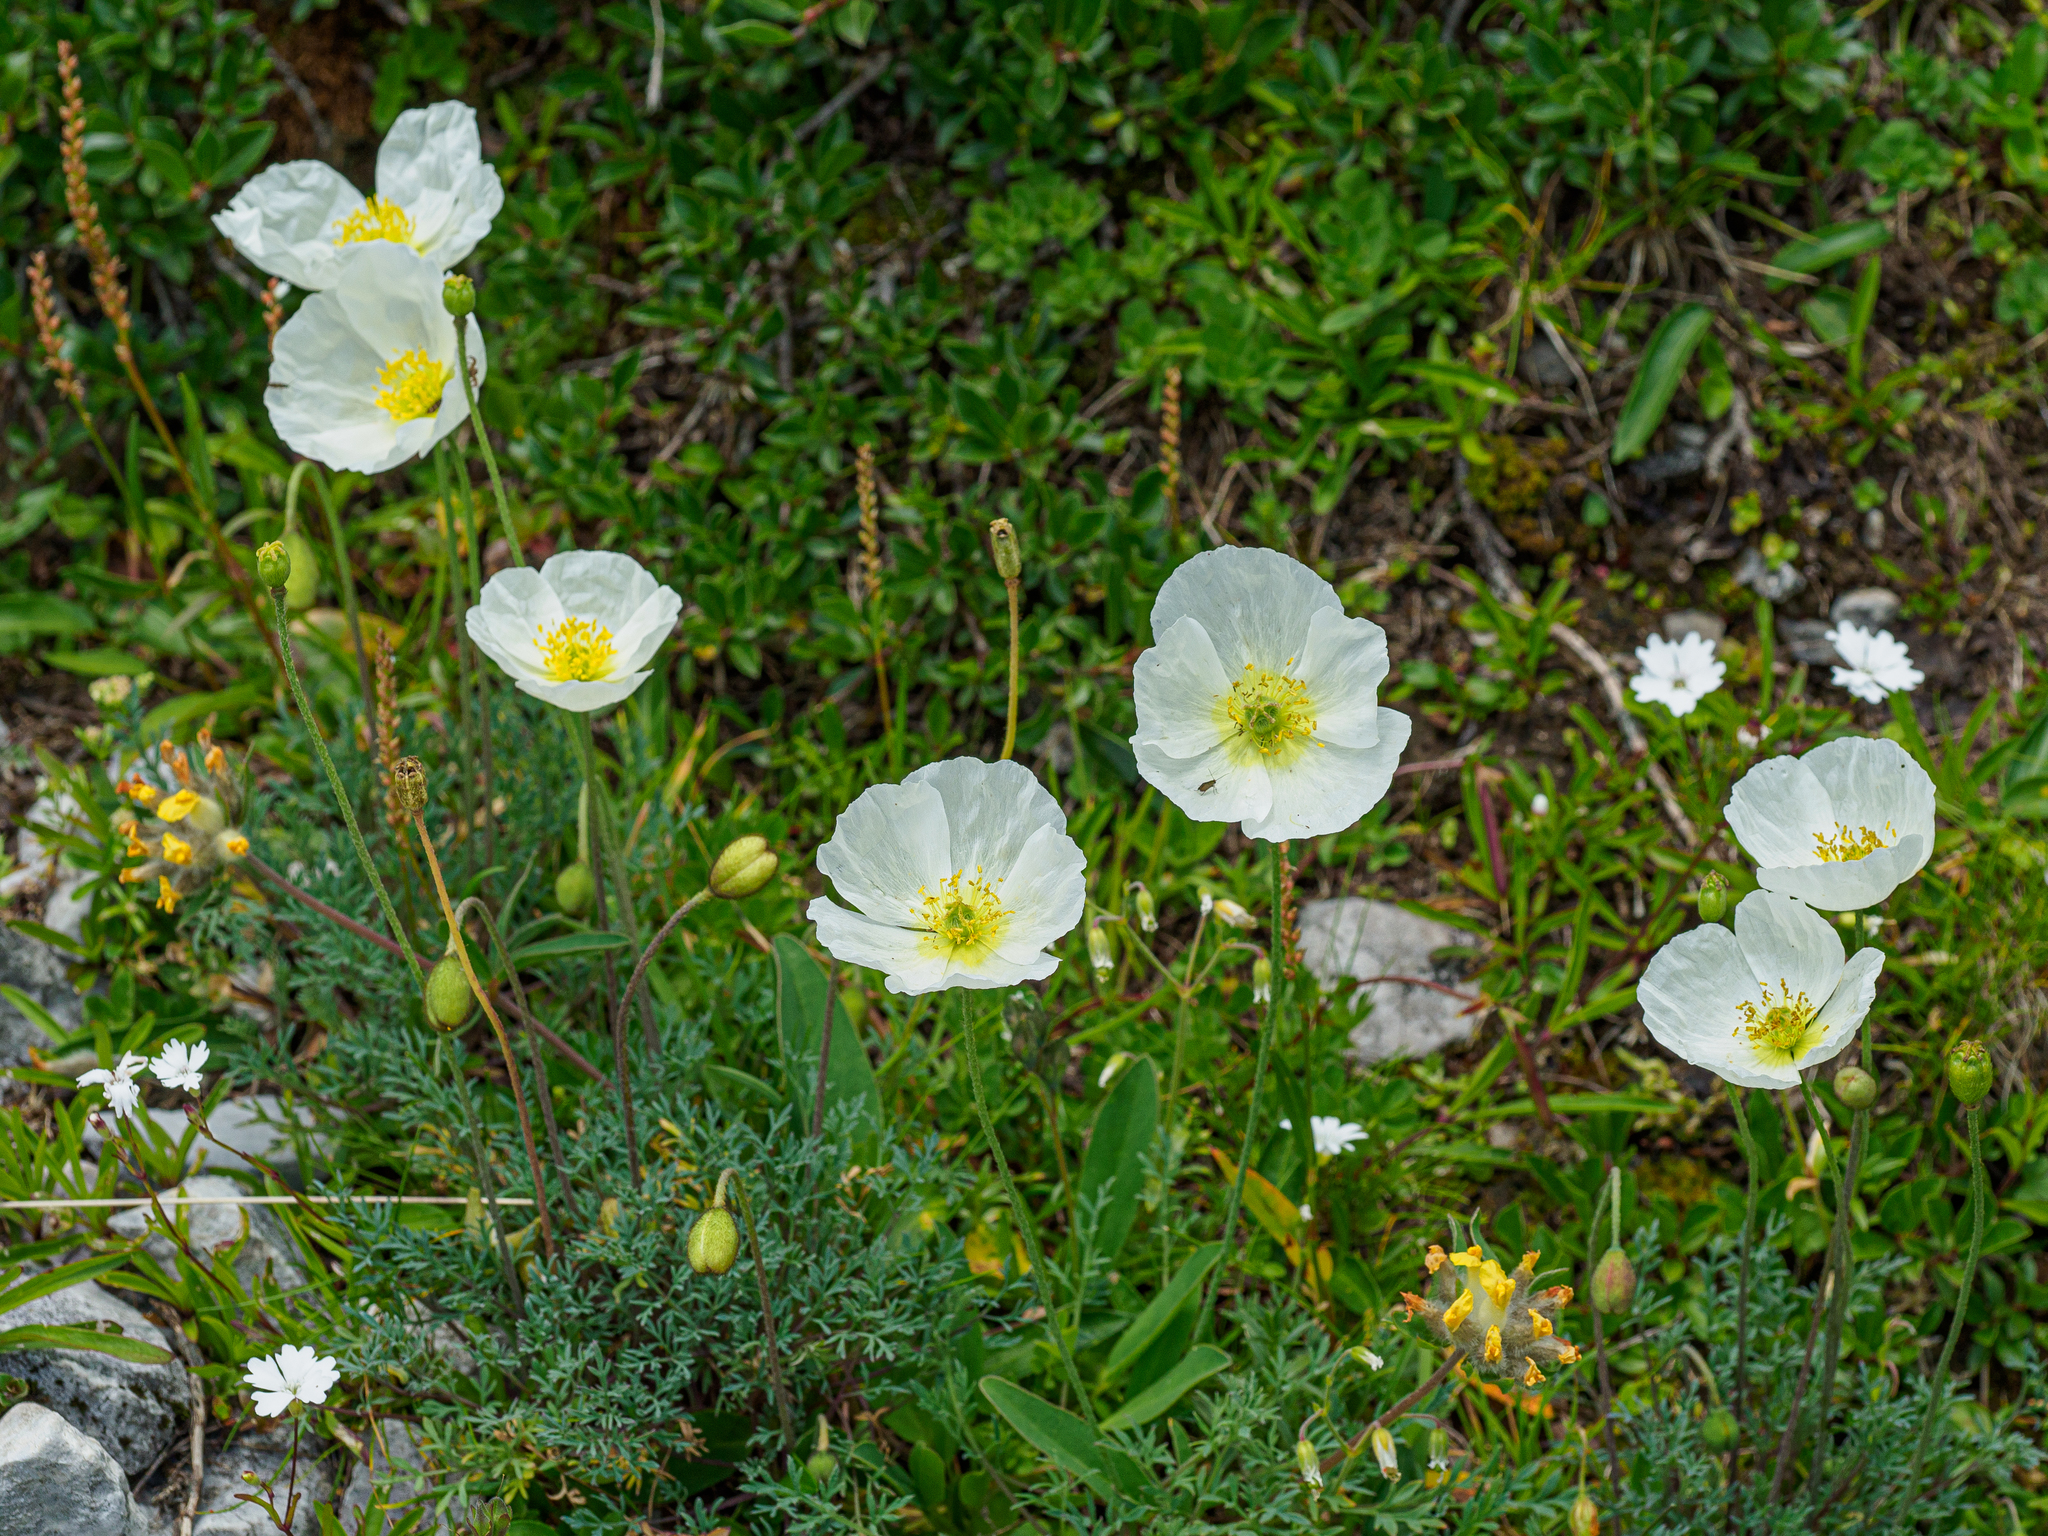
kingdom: Plantae
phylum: Tracheophyta
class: Magnoliopsida
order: Ranunculales
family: Papaveraceae
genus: Papaver
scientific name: Papaver alpinum
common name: Austrian poppy
